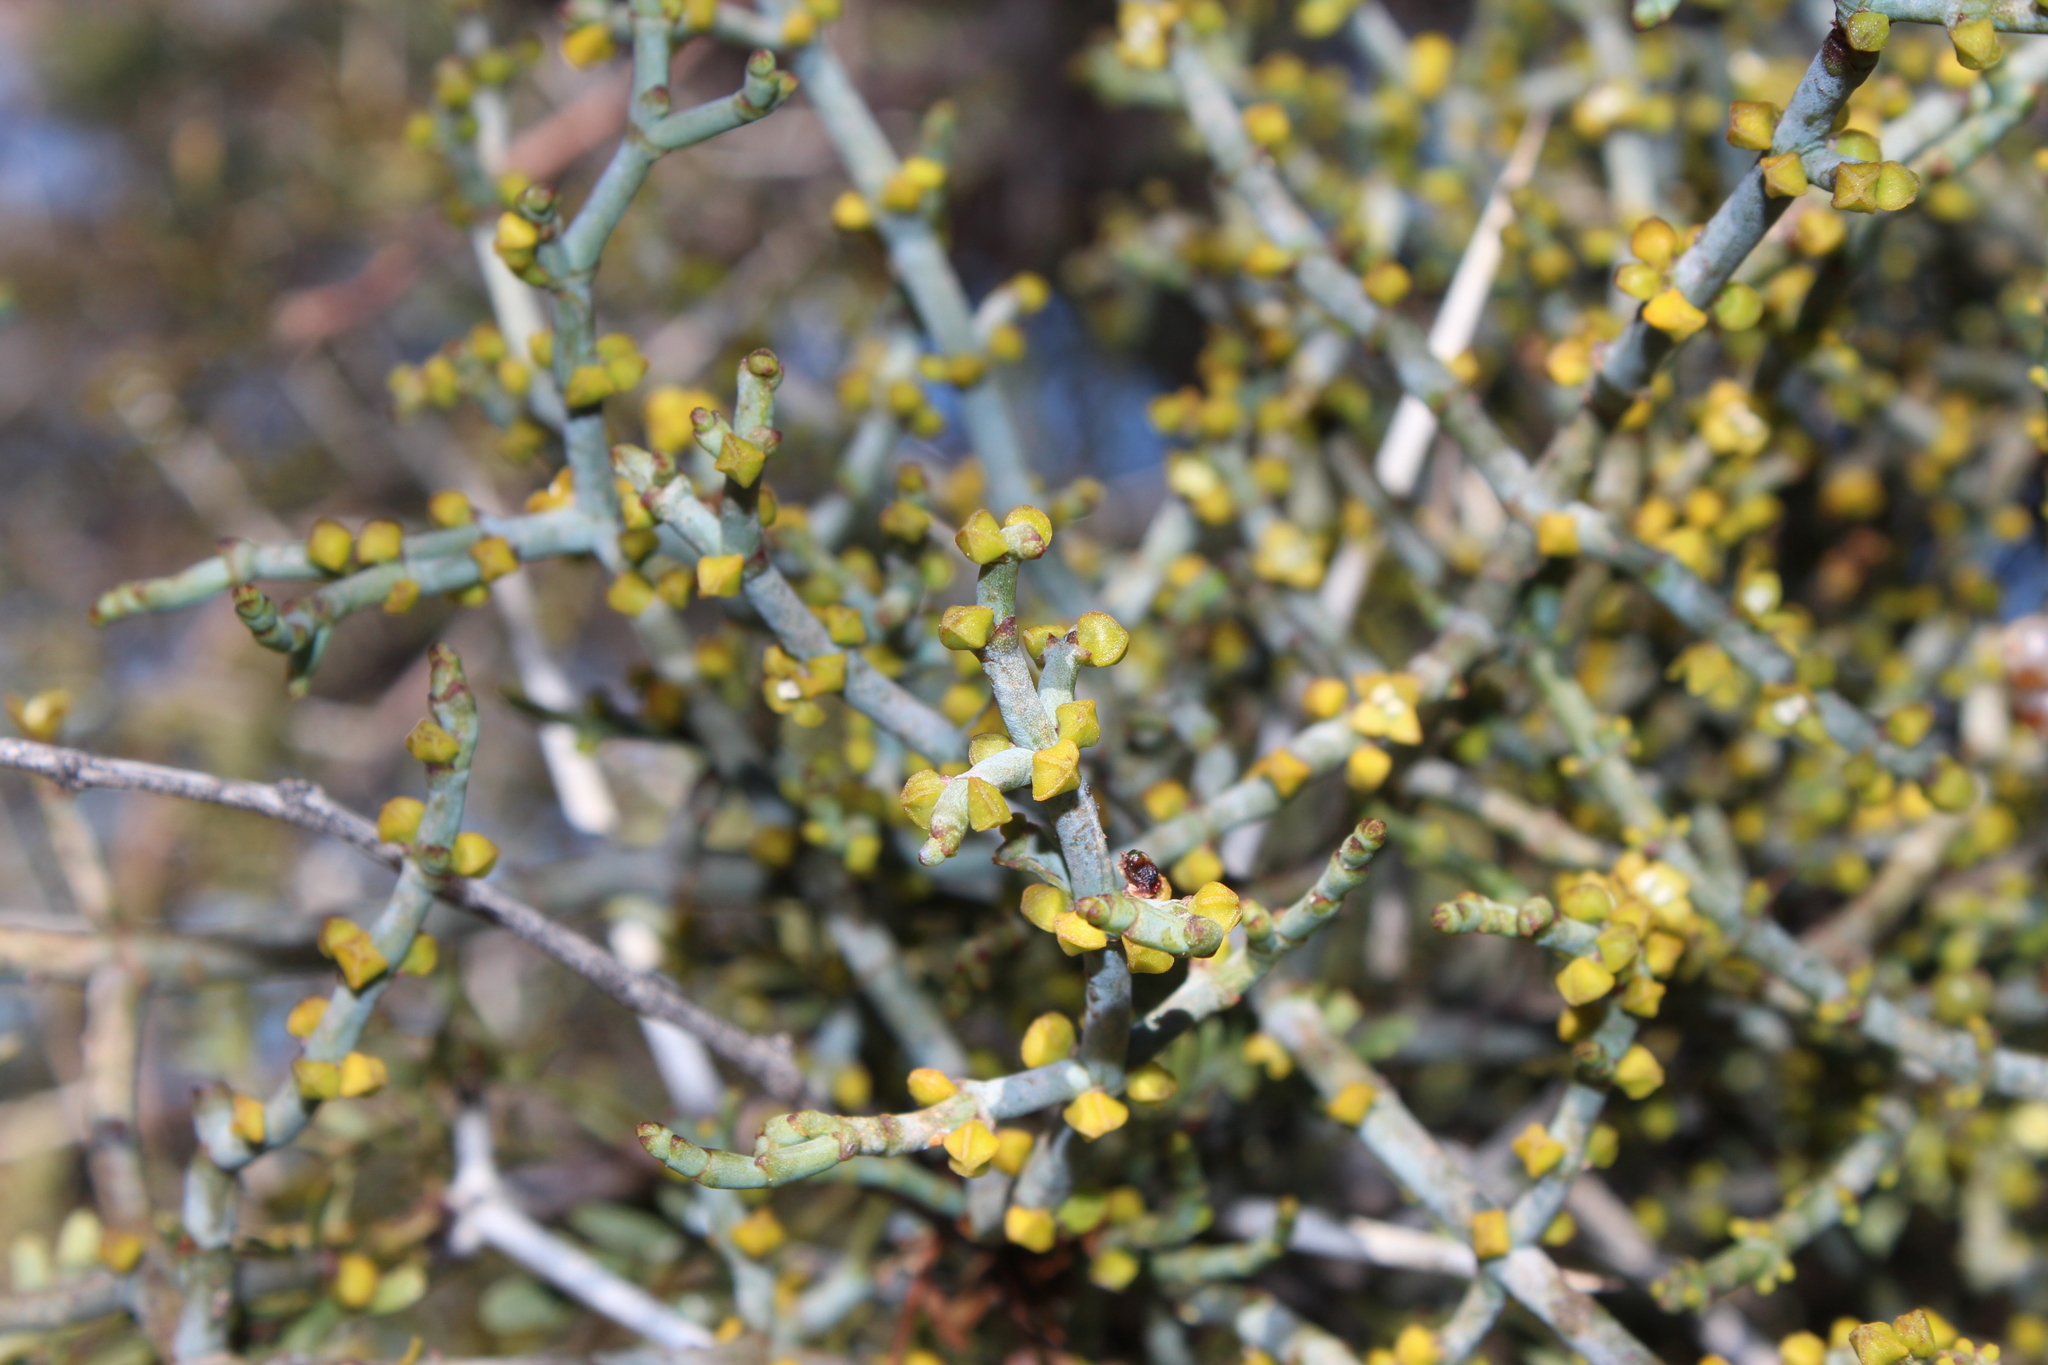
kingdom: Plantae
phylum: Tracheophyta
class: Magnoliopsida
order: Santalales
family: Viscaceae
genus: Viscum
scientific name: Viscum capense
